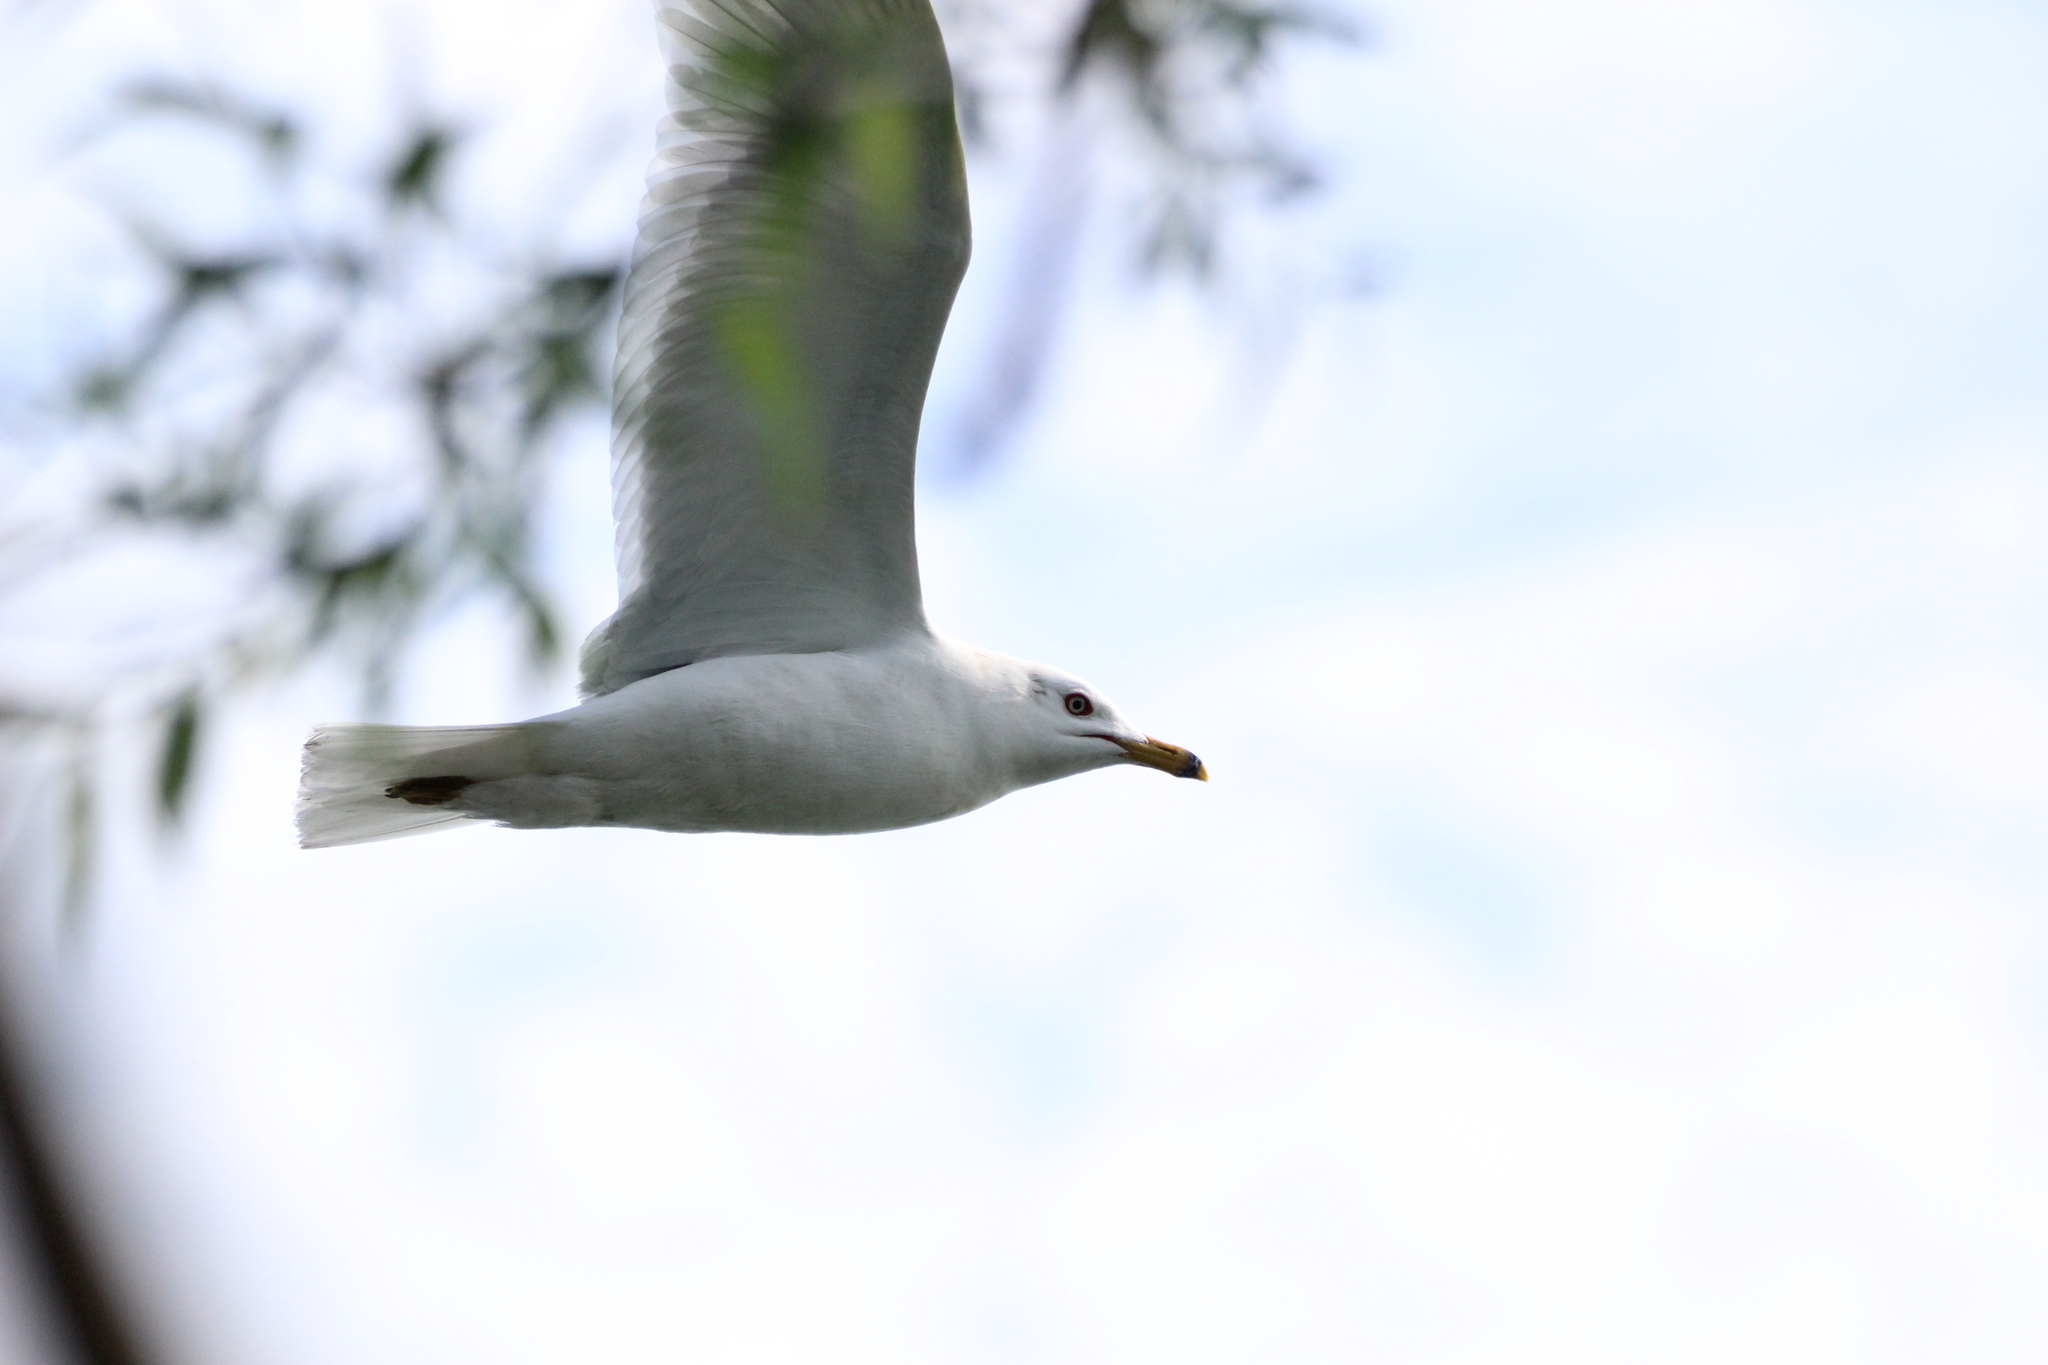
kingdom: Animalia
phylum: Chordata
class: Aves
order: Charadriiformes
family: Laridae
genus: Larus
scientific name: Larus delawarensis
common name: Ring-billed gull
